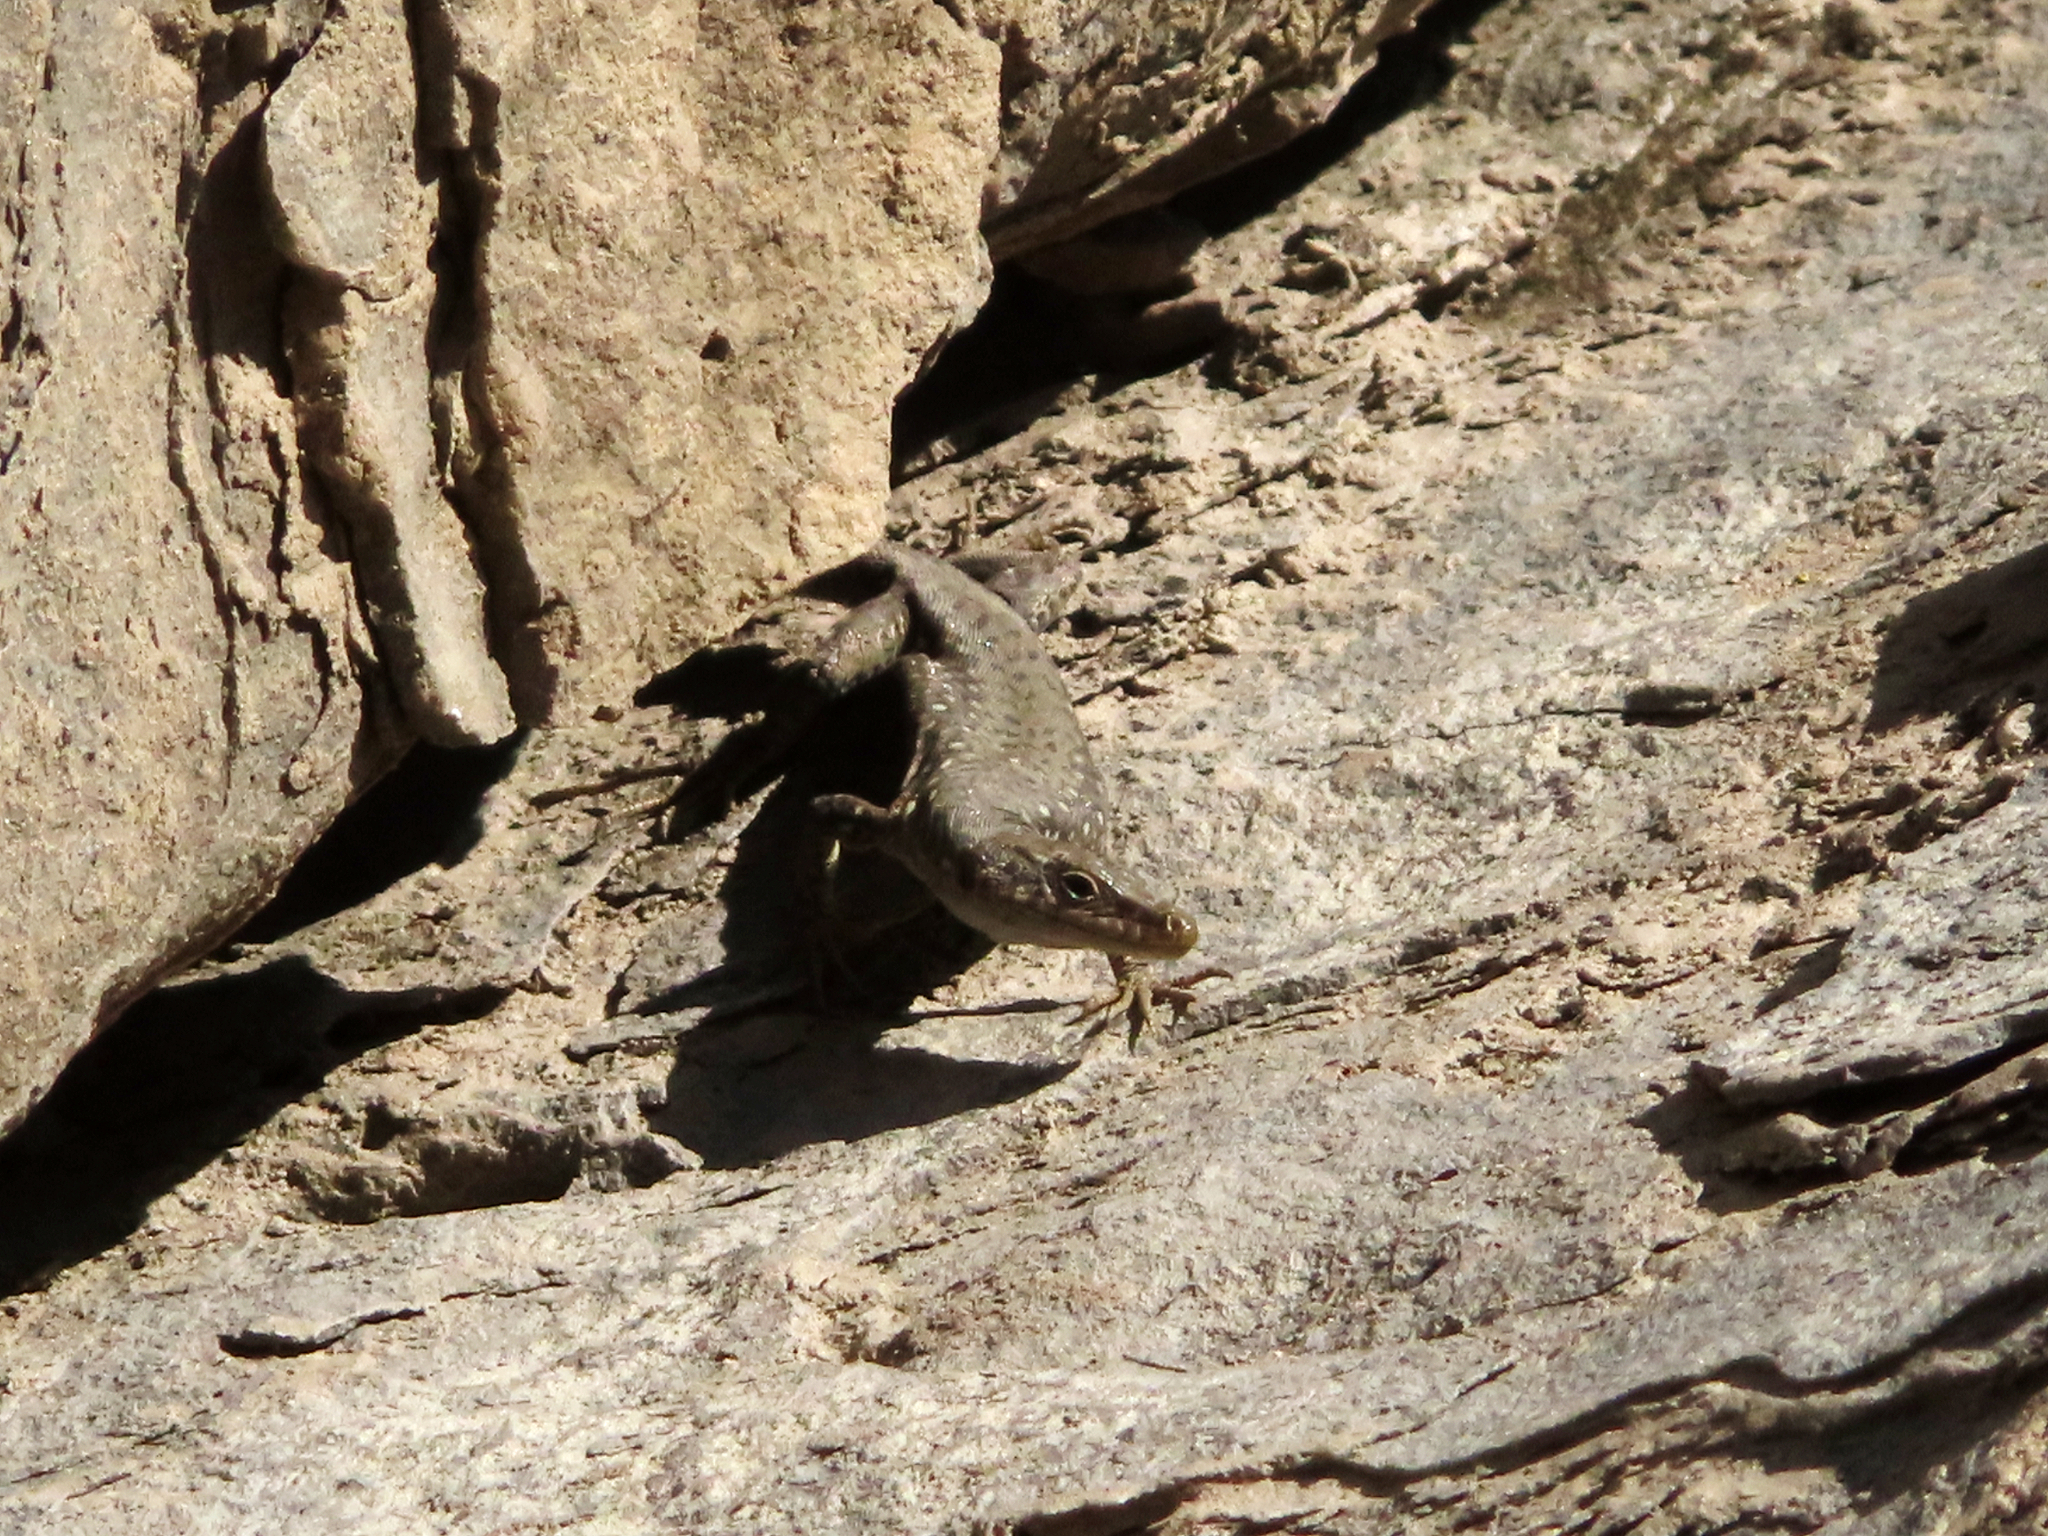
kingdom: Animalia
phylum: Chordata
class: Squamata
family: Lacertidae
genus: Darevskia
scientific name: Darevskia
